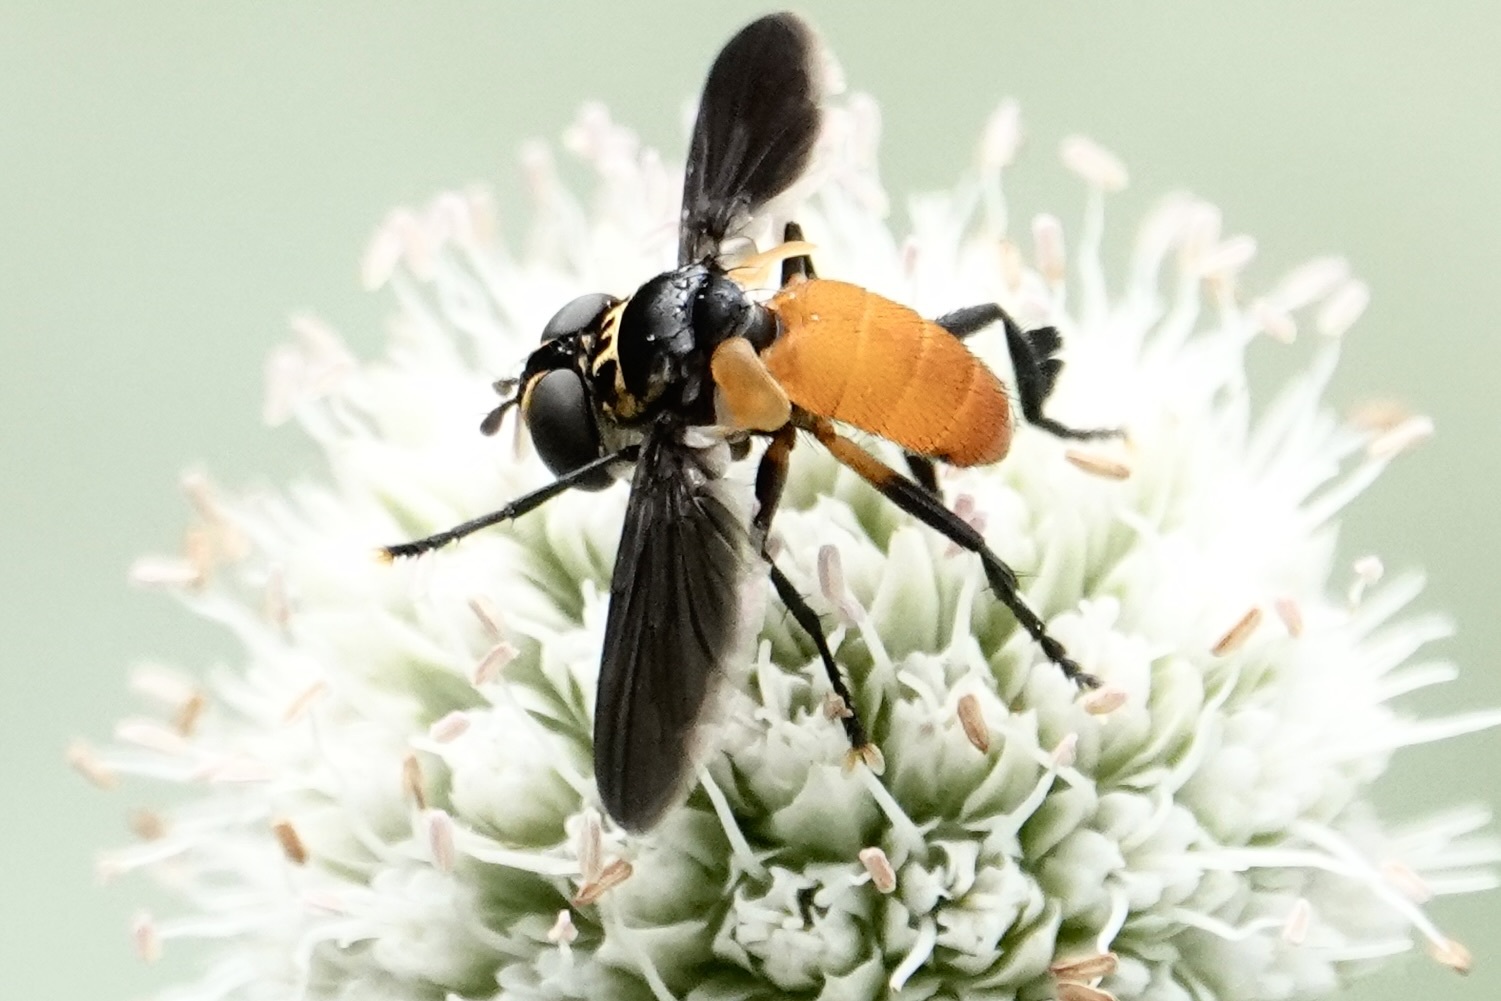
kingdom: Animalia
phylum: Arthropoda
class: Insecta
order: Diptera
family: Tachinidae
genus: Trichopoda
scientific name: Trichopoda pennipes
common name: Tachinid fly
